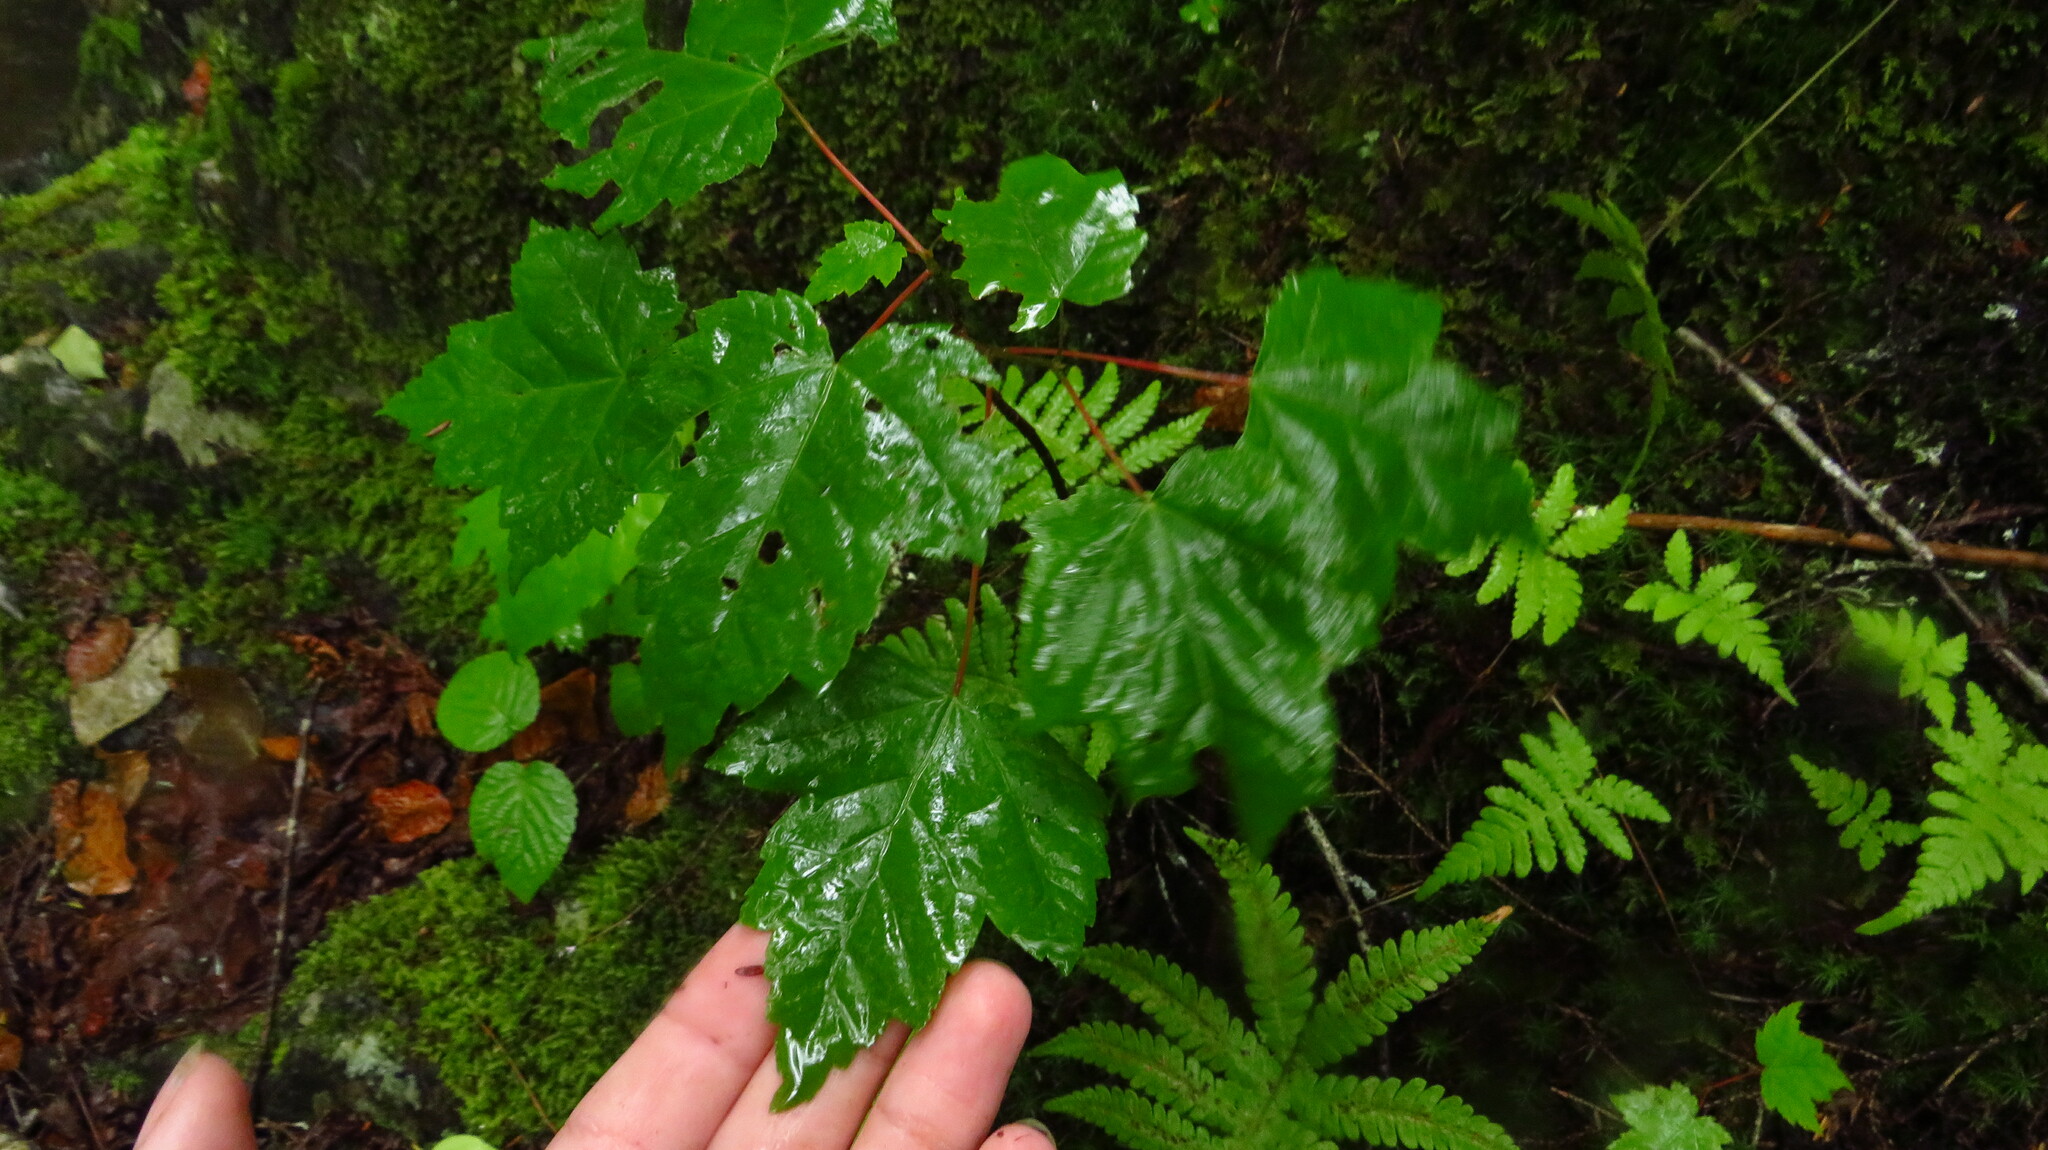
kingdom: Plantae
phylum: Tracheophyta
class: Magnoliopsida
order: Sapindales
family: Sapindaceae
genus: Acer
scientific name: Acer rubrum
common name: Red maple
